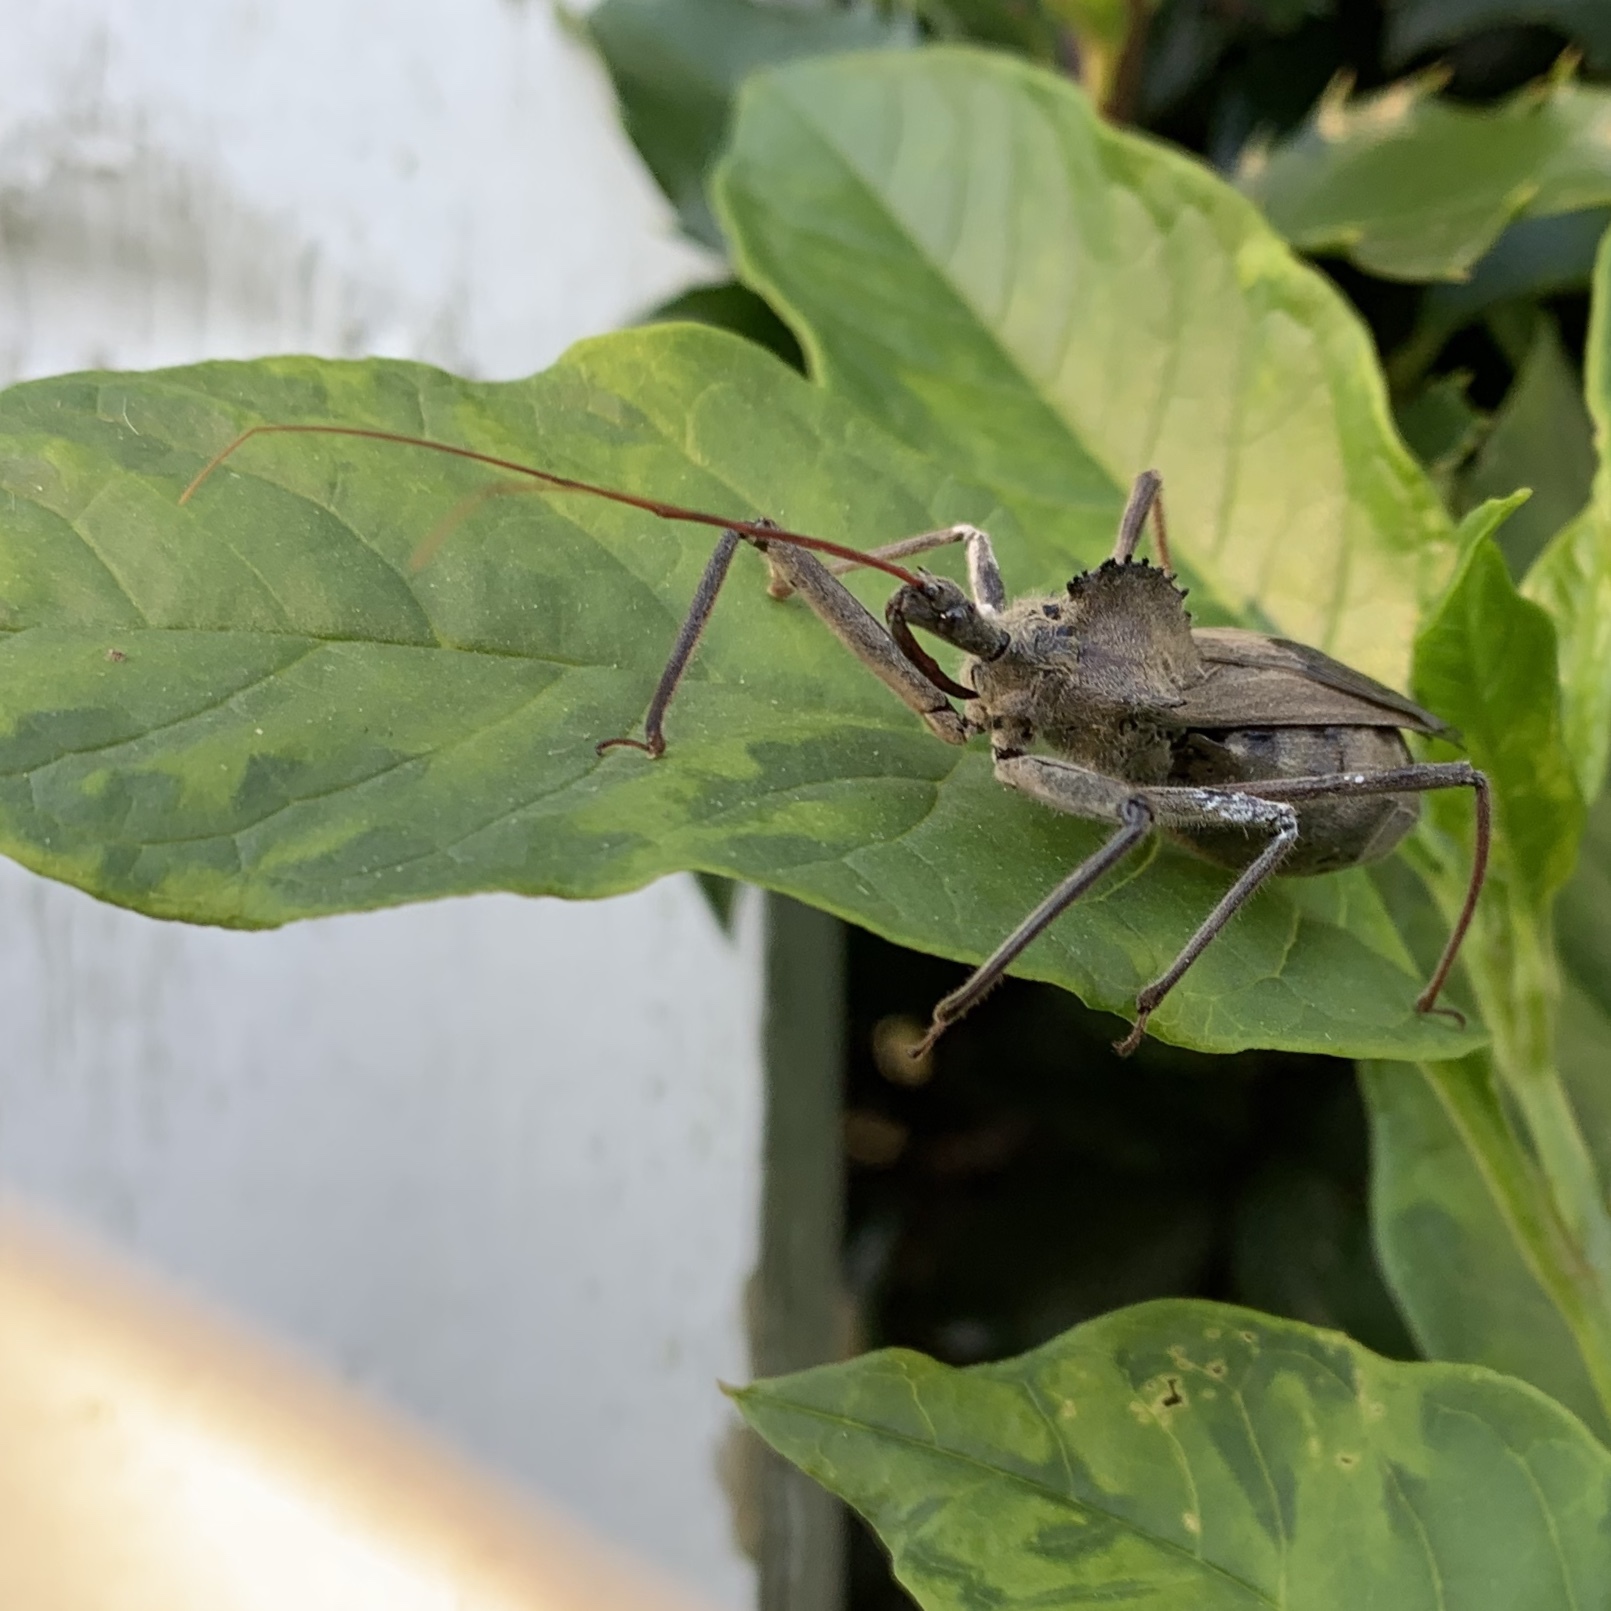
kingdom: Animalia
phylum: Arthropoda
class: Insecta
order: Hemiptera
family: Reduviidae
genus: Arilus
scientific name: Arilus cristatus
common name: North american wheel bug
